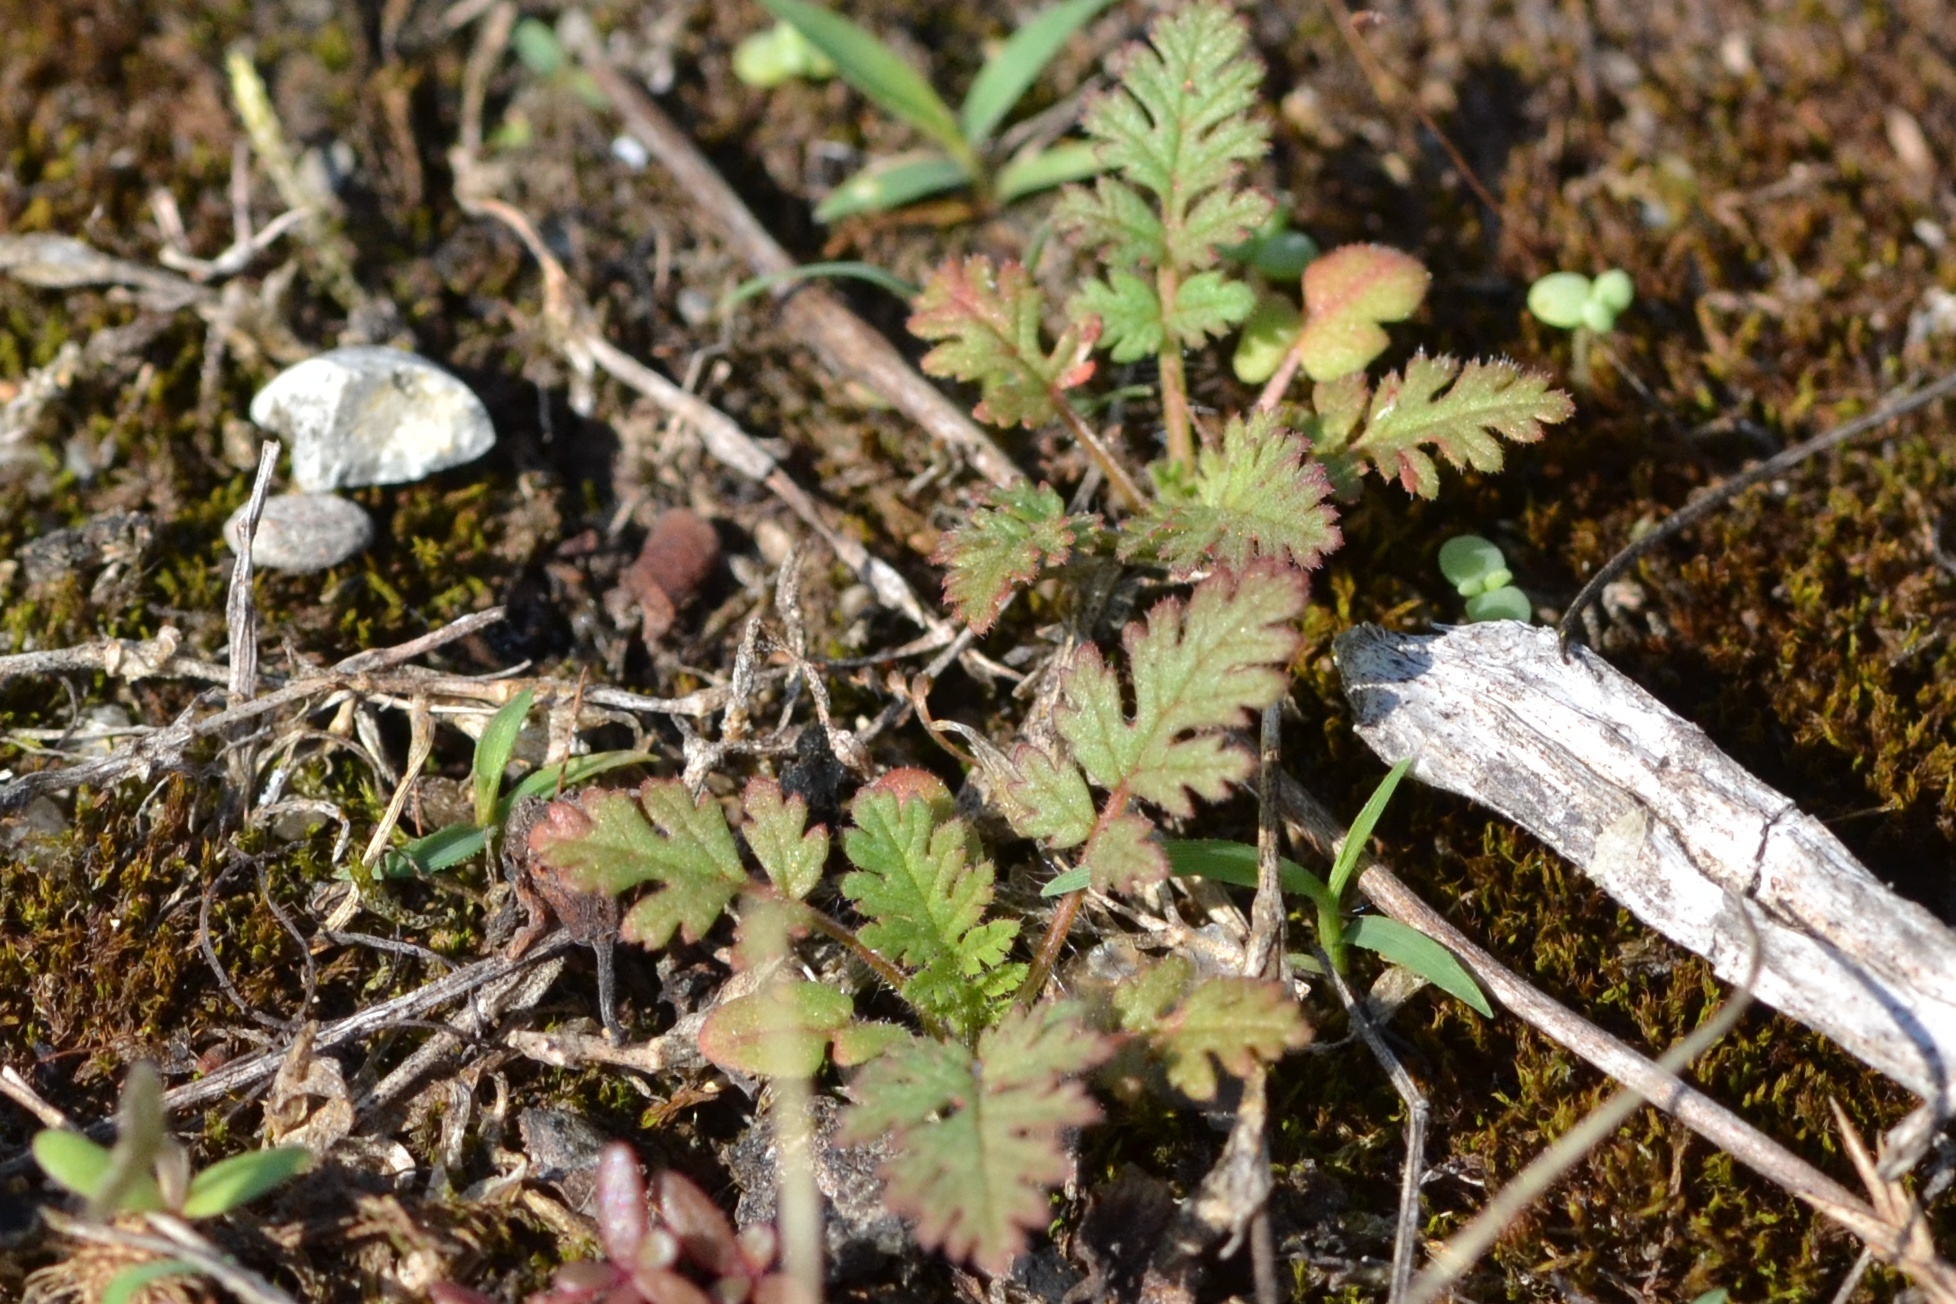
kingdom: Plantae
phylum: Tracheophyta
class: Magnoliopsida
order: Geraniales
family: Geraniaceae
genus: Erodium
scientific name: Erodium cicutarium
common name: Common stork's-bill
